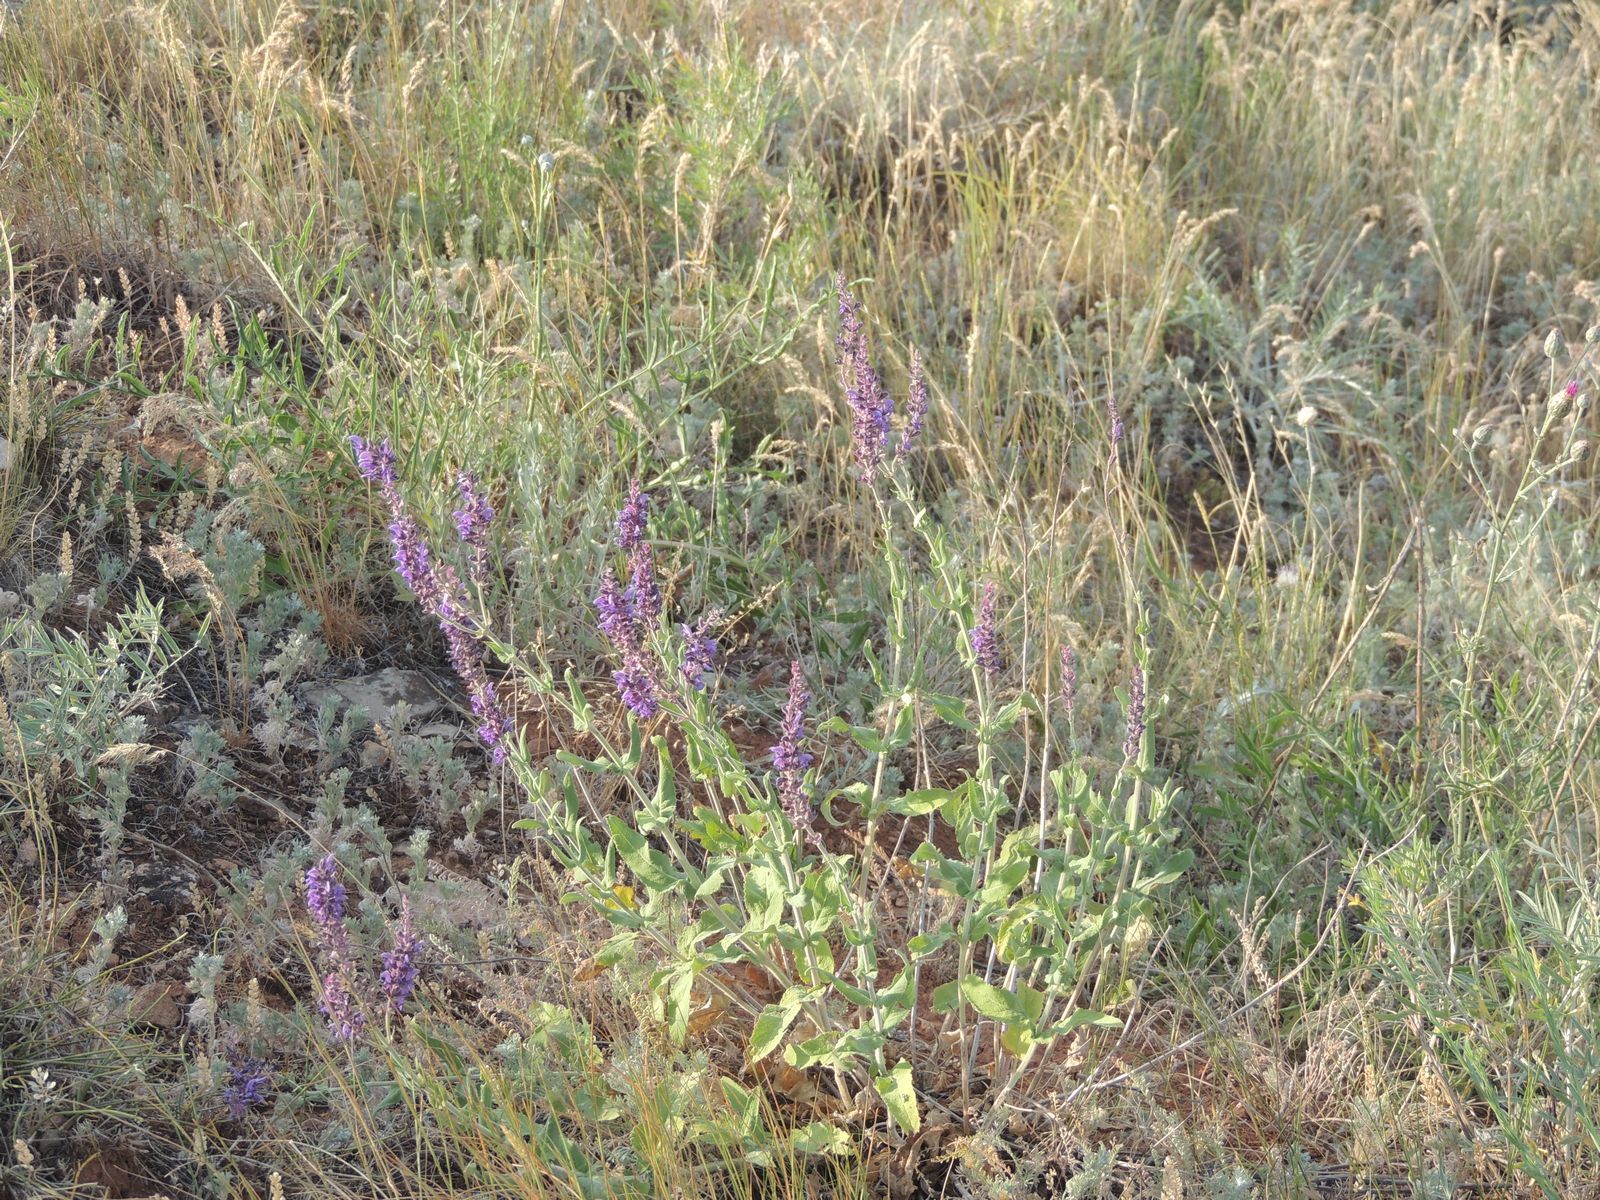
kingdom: Plantae
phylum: Tracheophyta
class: Magnoliopsida
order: Lamiales
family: Lamiaceae
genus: Salvia
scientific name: Salvia nemorosa
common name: Balkan clary
